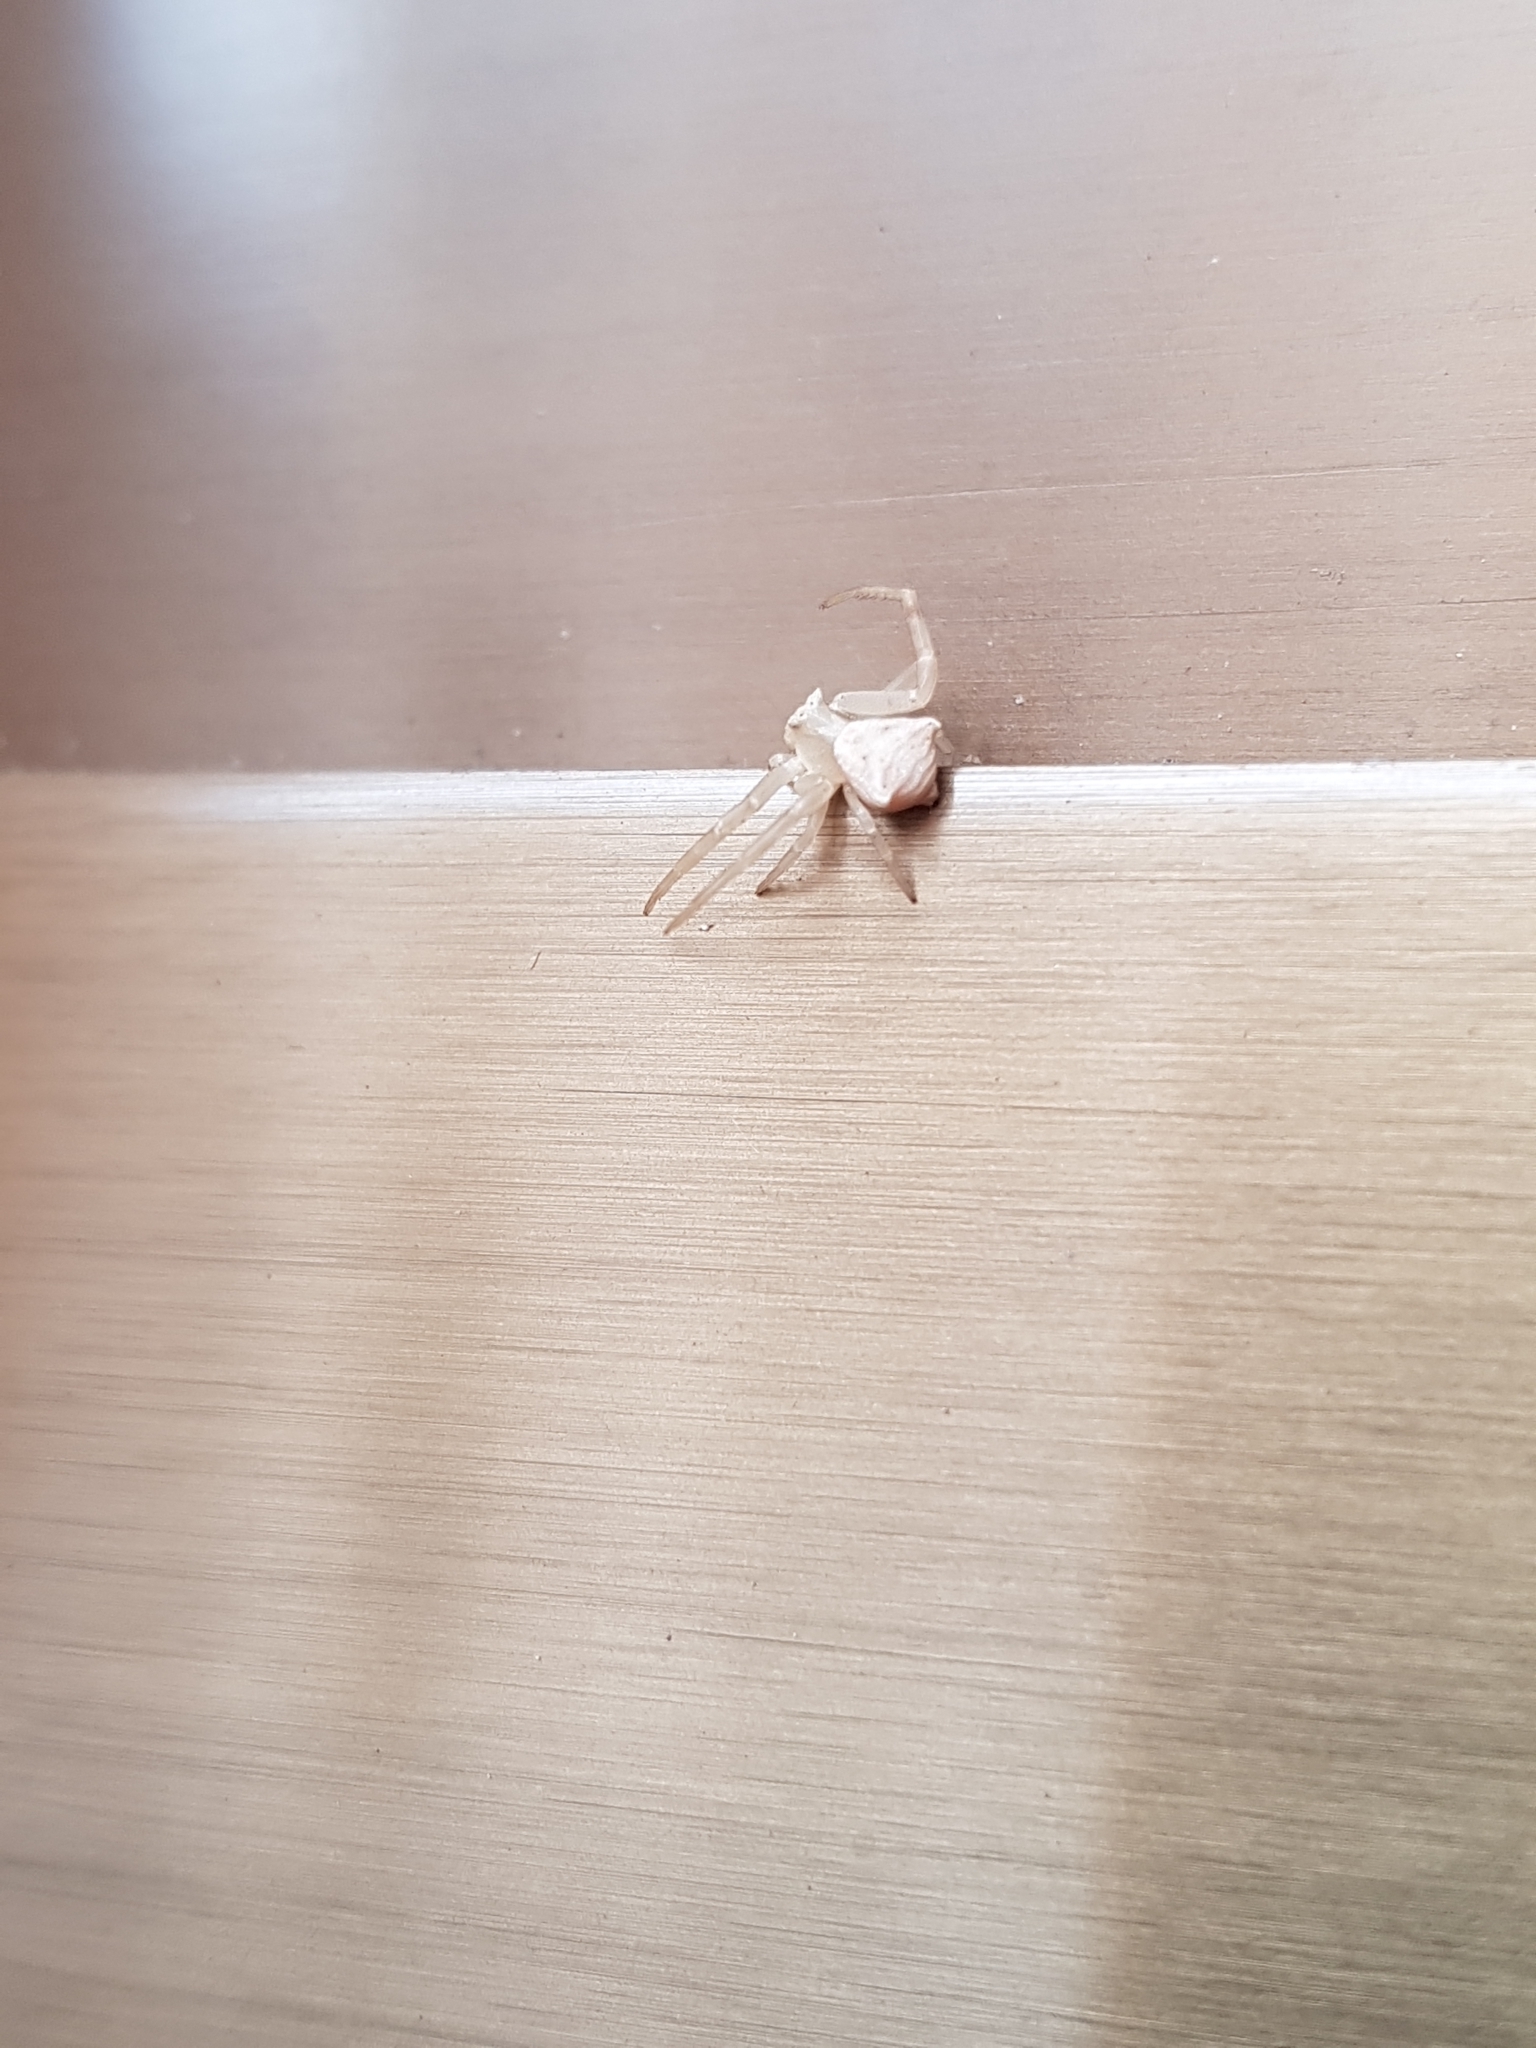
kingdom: Animalia
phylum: Arthropoda
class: Arachnida
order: Araneae
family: Thomisidae
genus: Thomisus
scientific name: Thomisus onustus
